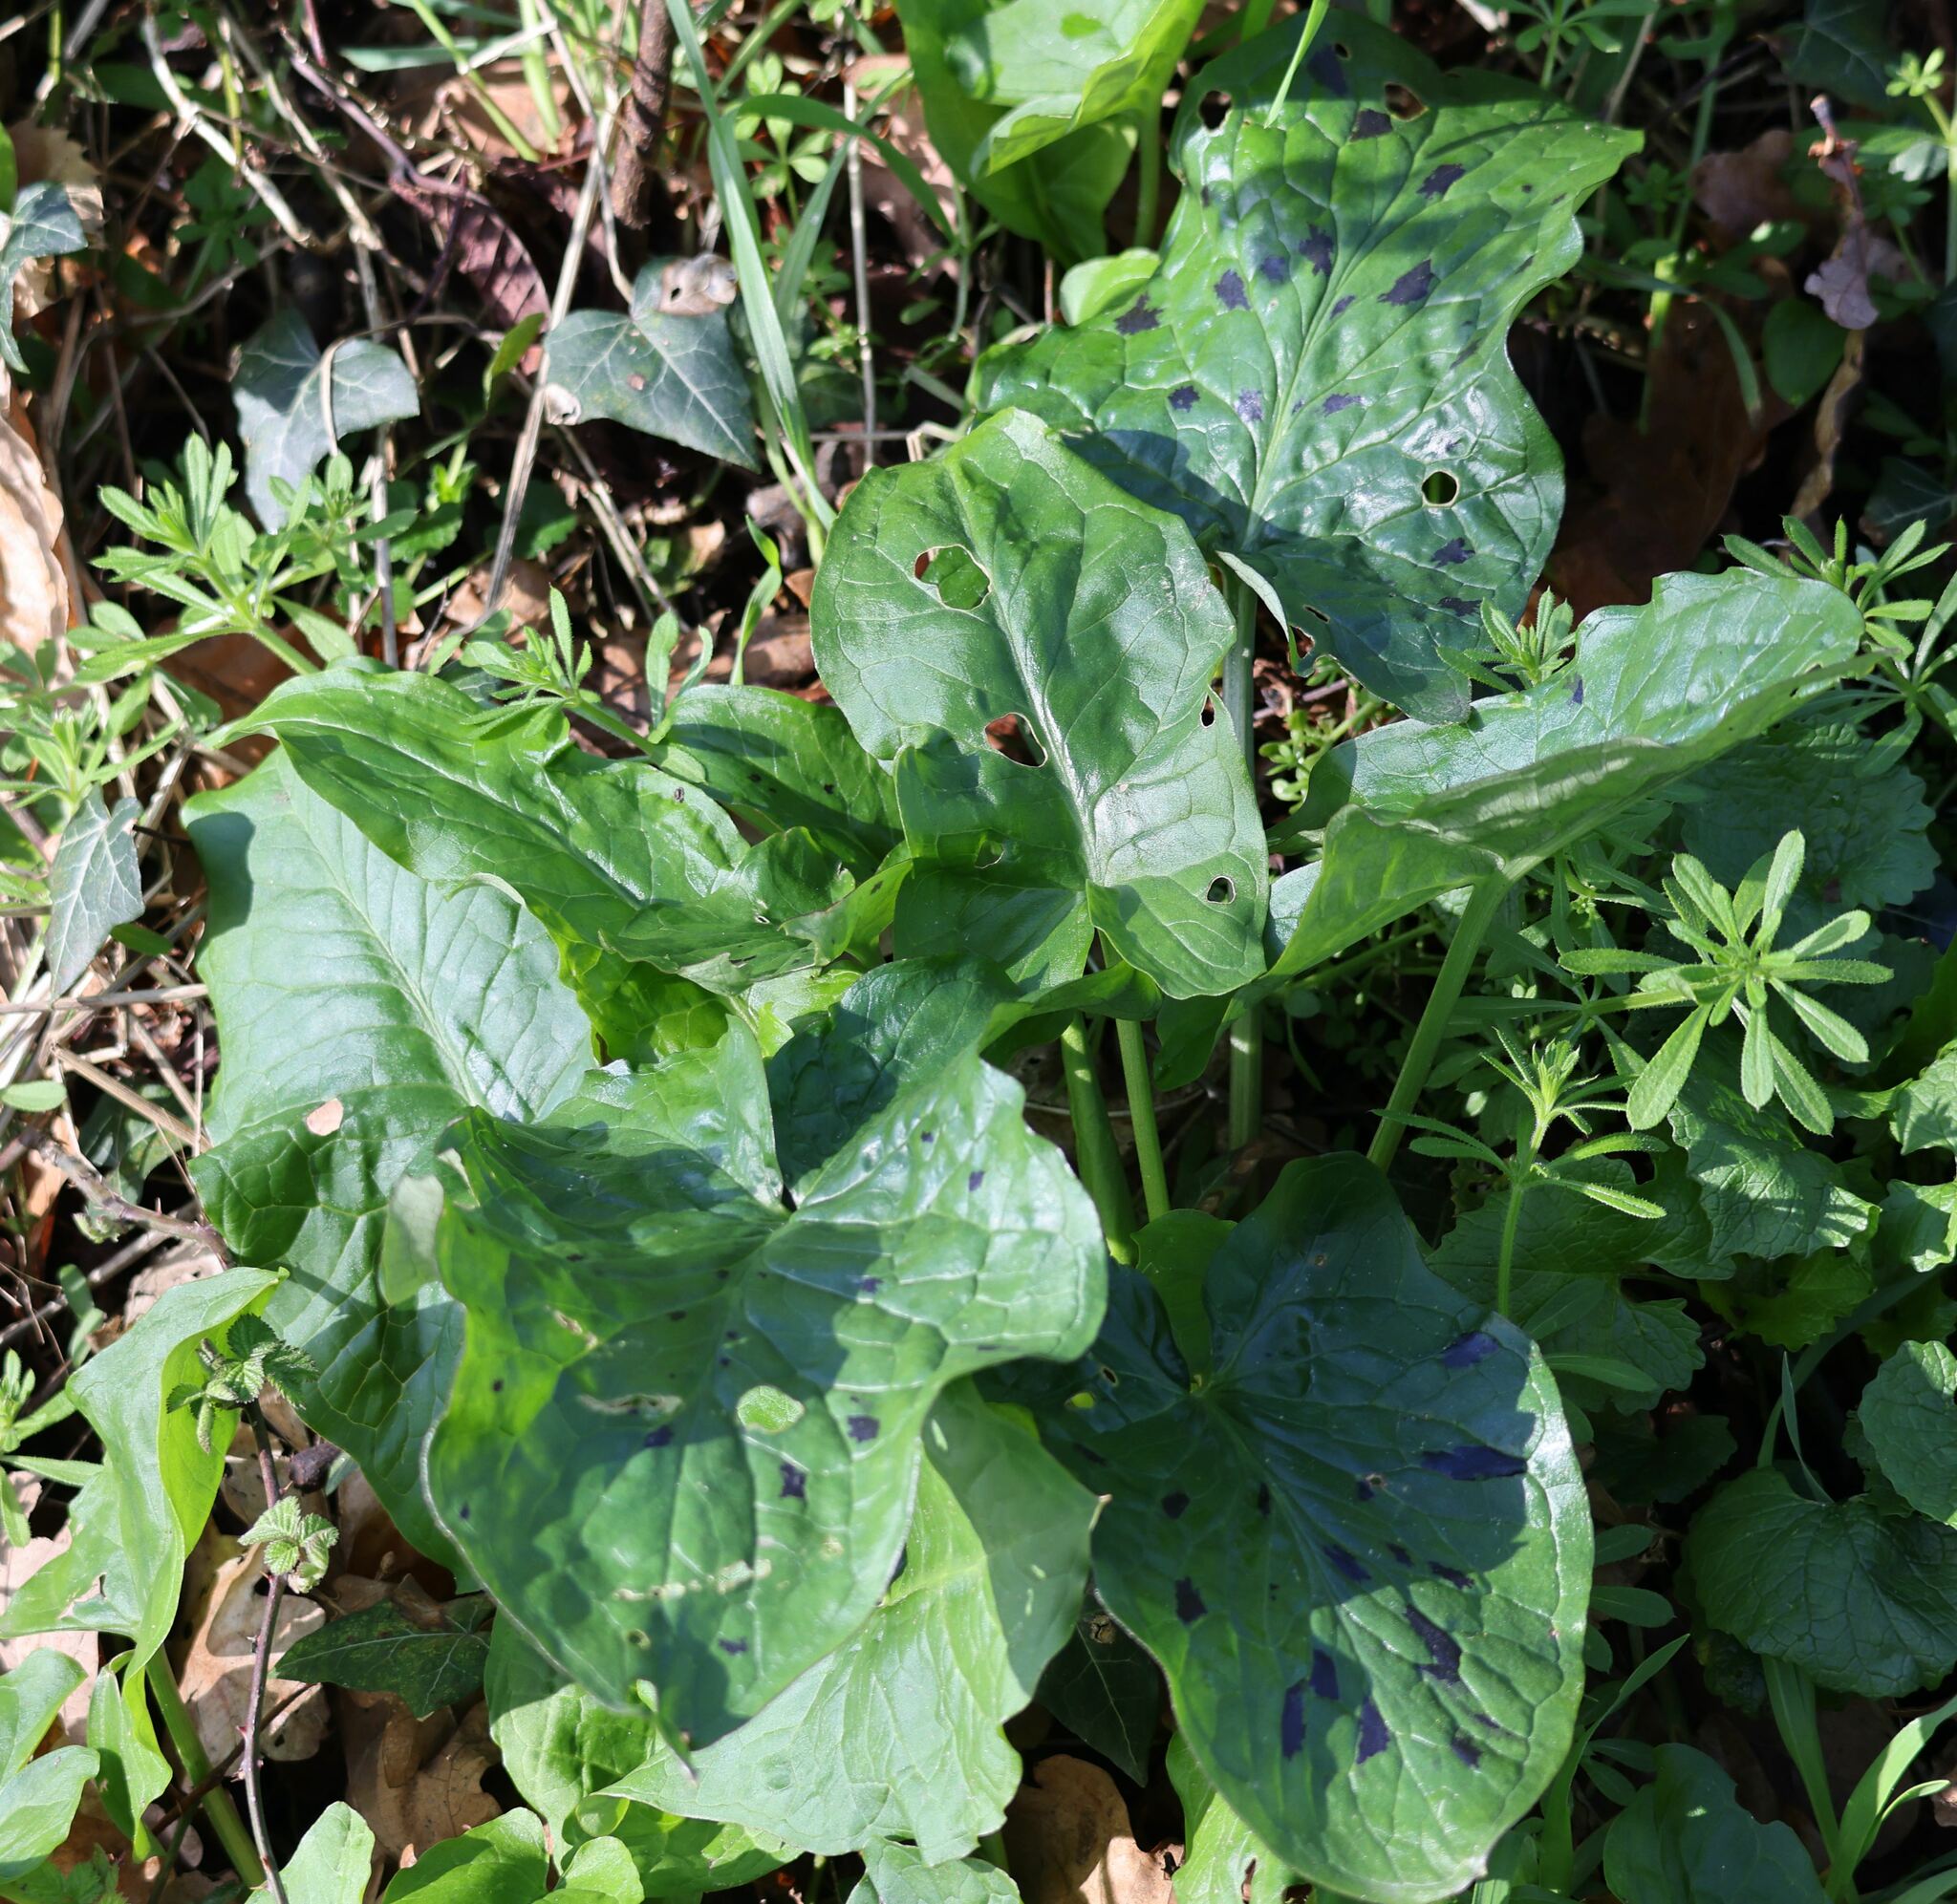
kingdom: Plantae
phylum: Tracheophyta
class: Liliopsida
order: Alismatales
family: Araceae
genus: Arum
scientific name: Arum maculatum
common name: Lords-and-ladies
